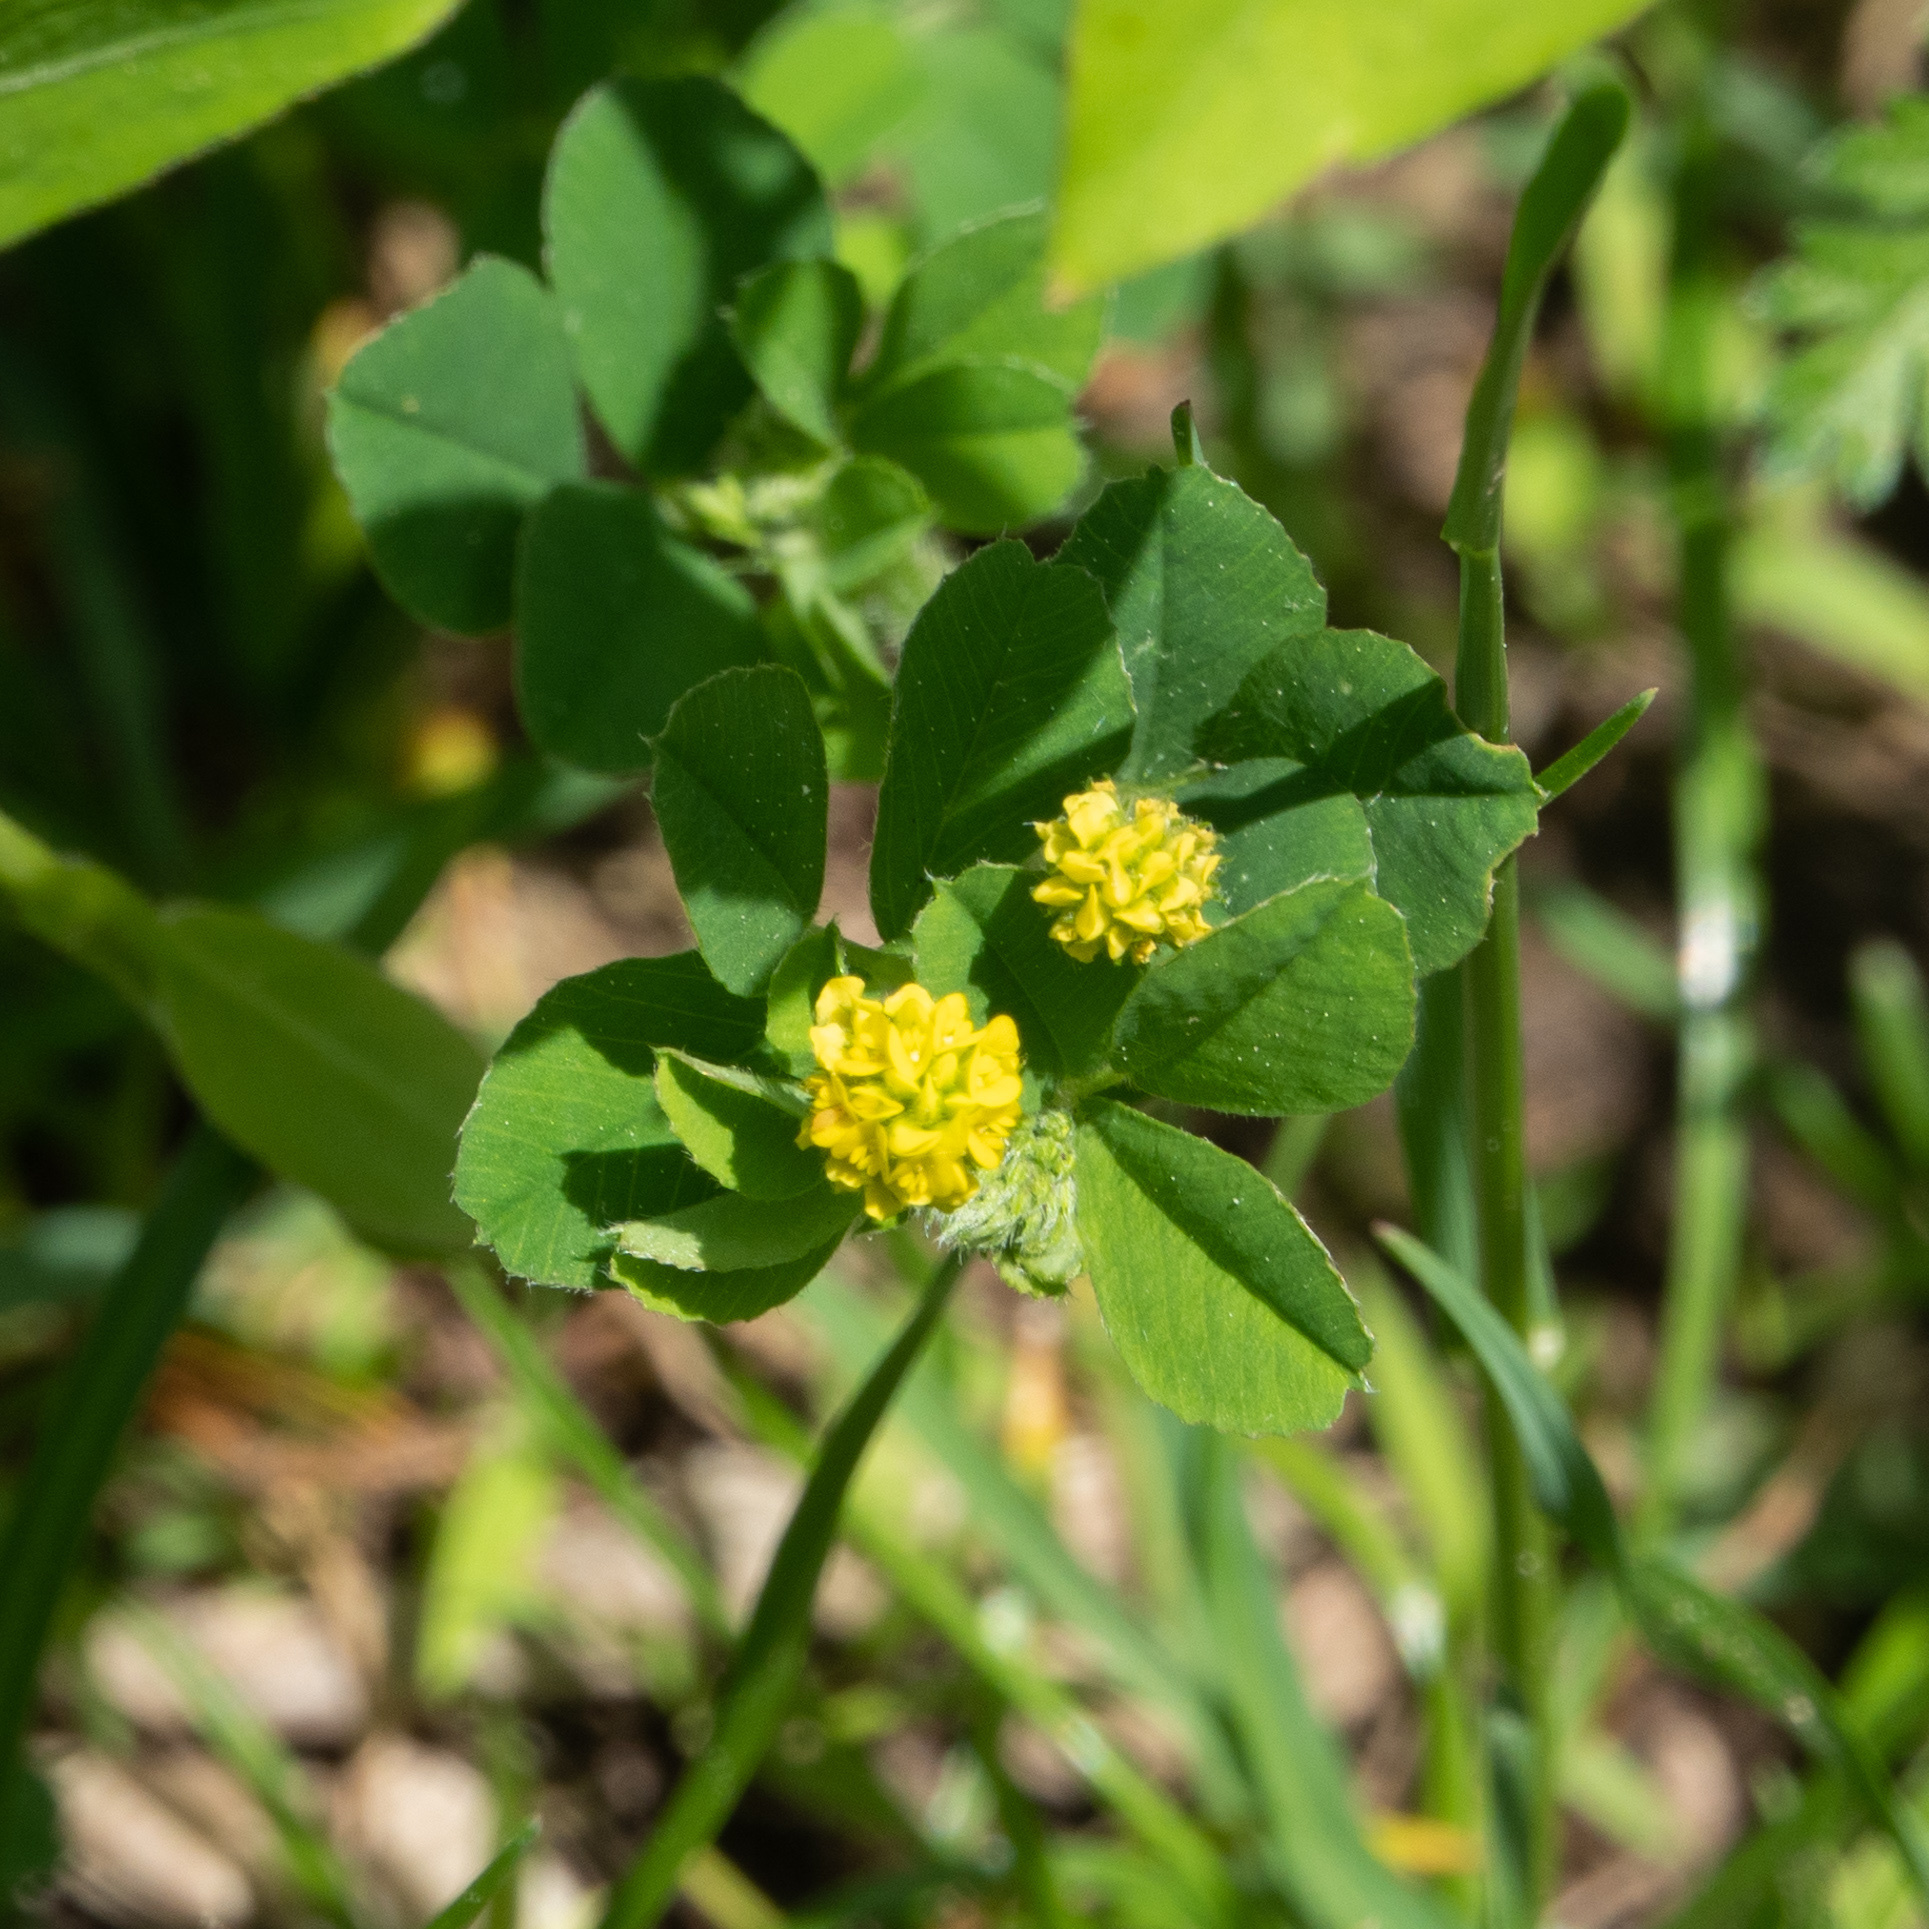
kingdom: Plantae
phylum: Tracheophyta
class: Magnoliopsida
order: Fabales
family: Fabaceae
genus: Medicago
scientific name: Medicago lupulina
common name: Black medick
